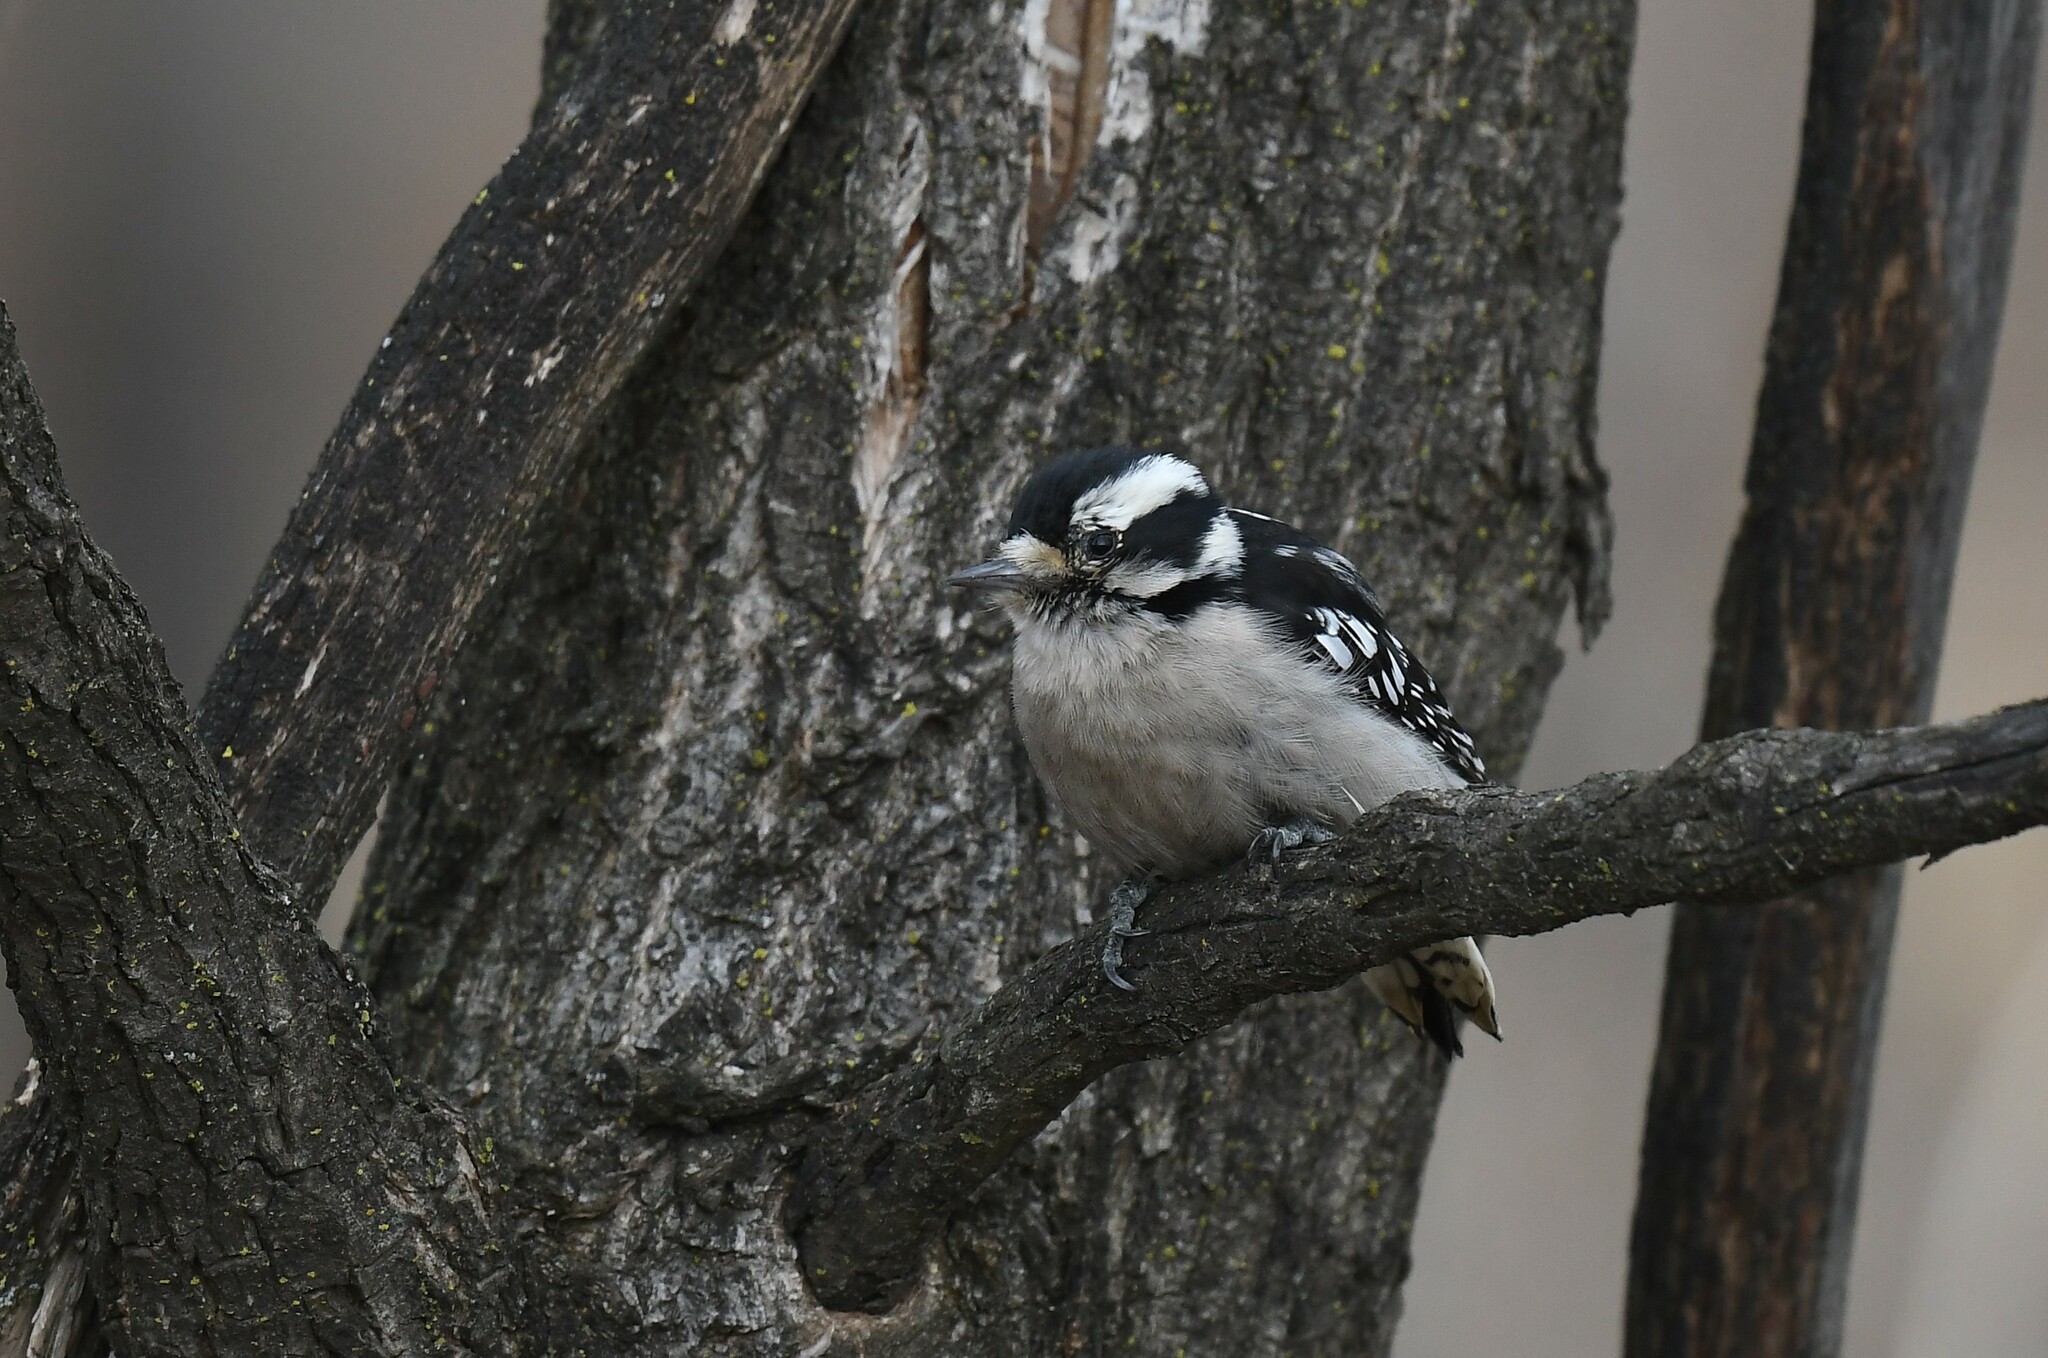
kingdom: Animalia
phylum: Chordata
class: Aves
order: Piciformes
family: Picidae
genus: Dryobates
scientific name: Dryobates pubescens
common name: Downy woodpecker
